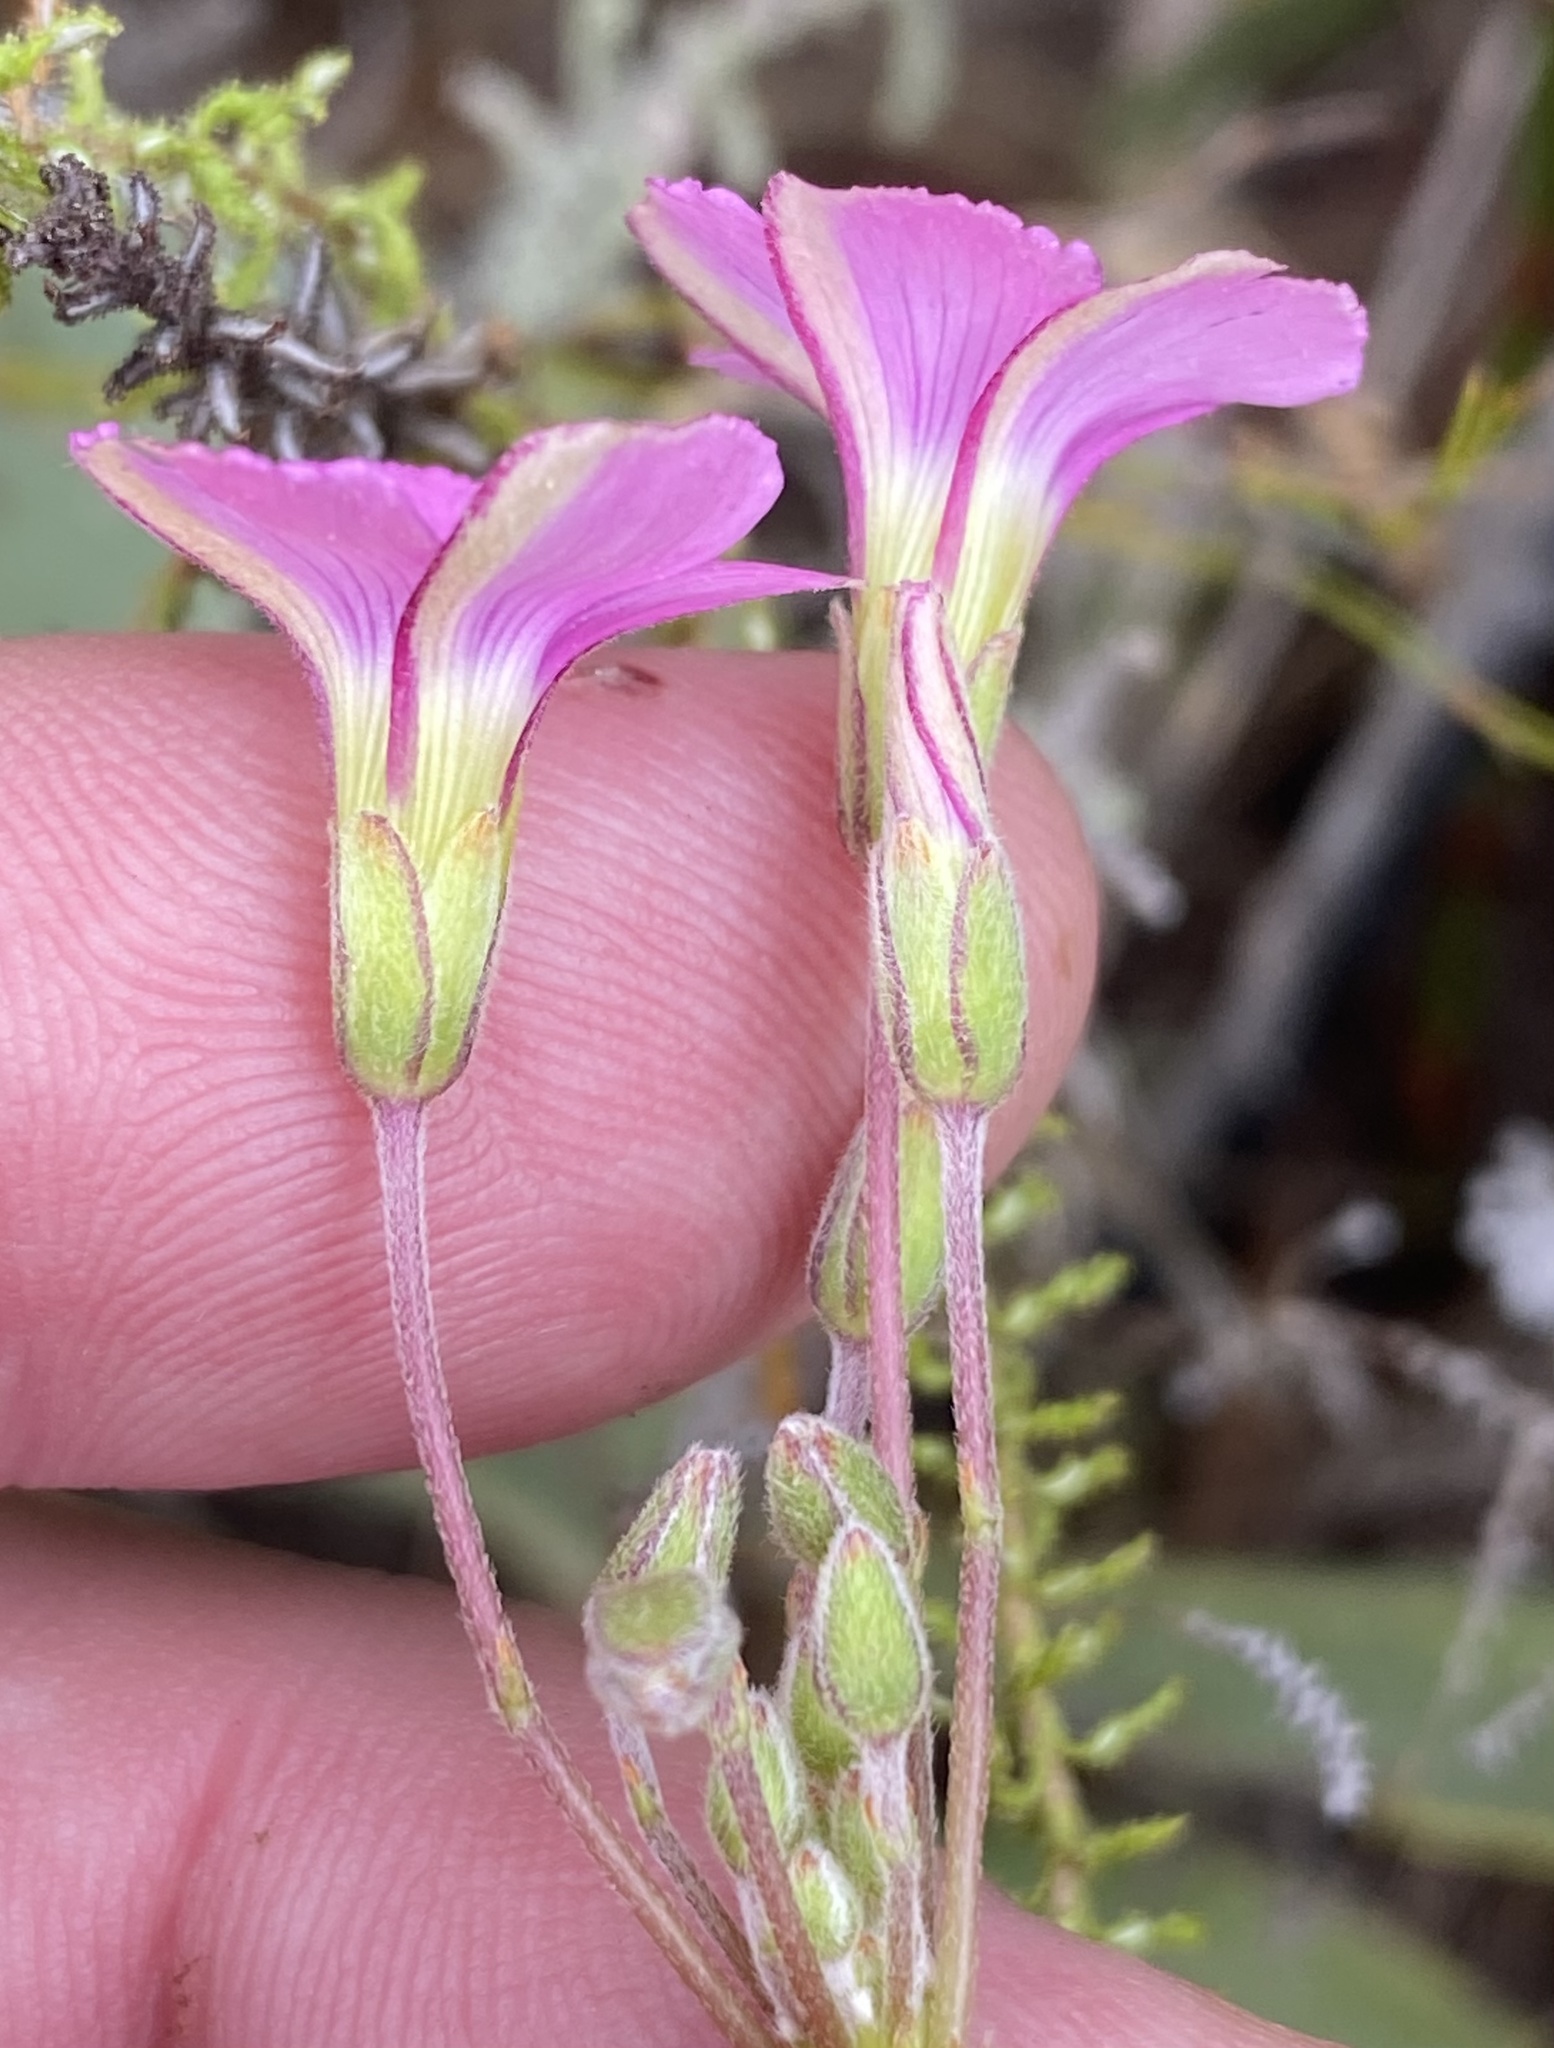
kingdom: Plantae
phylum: Tracheophyta
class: Magnoliopsida
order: Oxalidales
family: Oxalidaceae
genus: Oxalis
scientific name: Oxalis bifida
